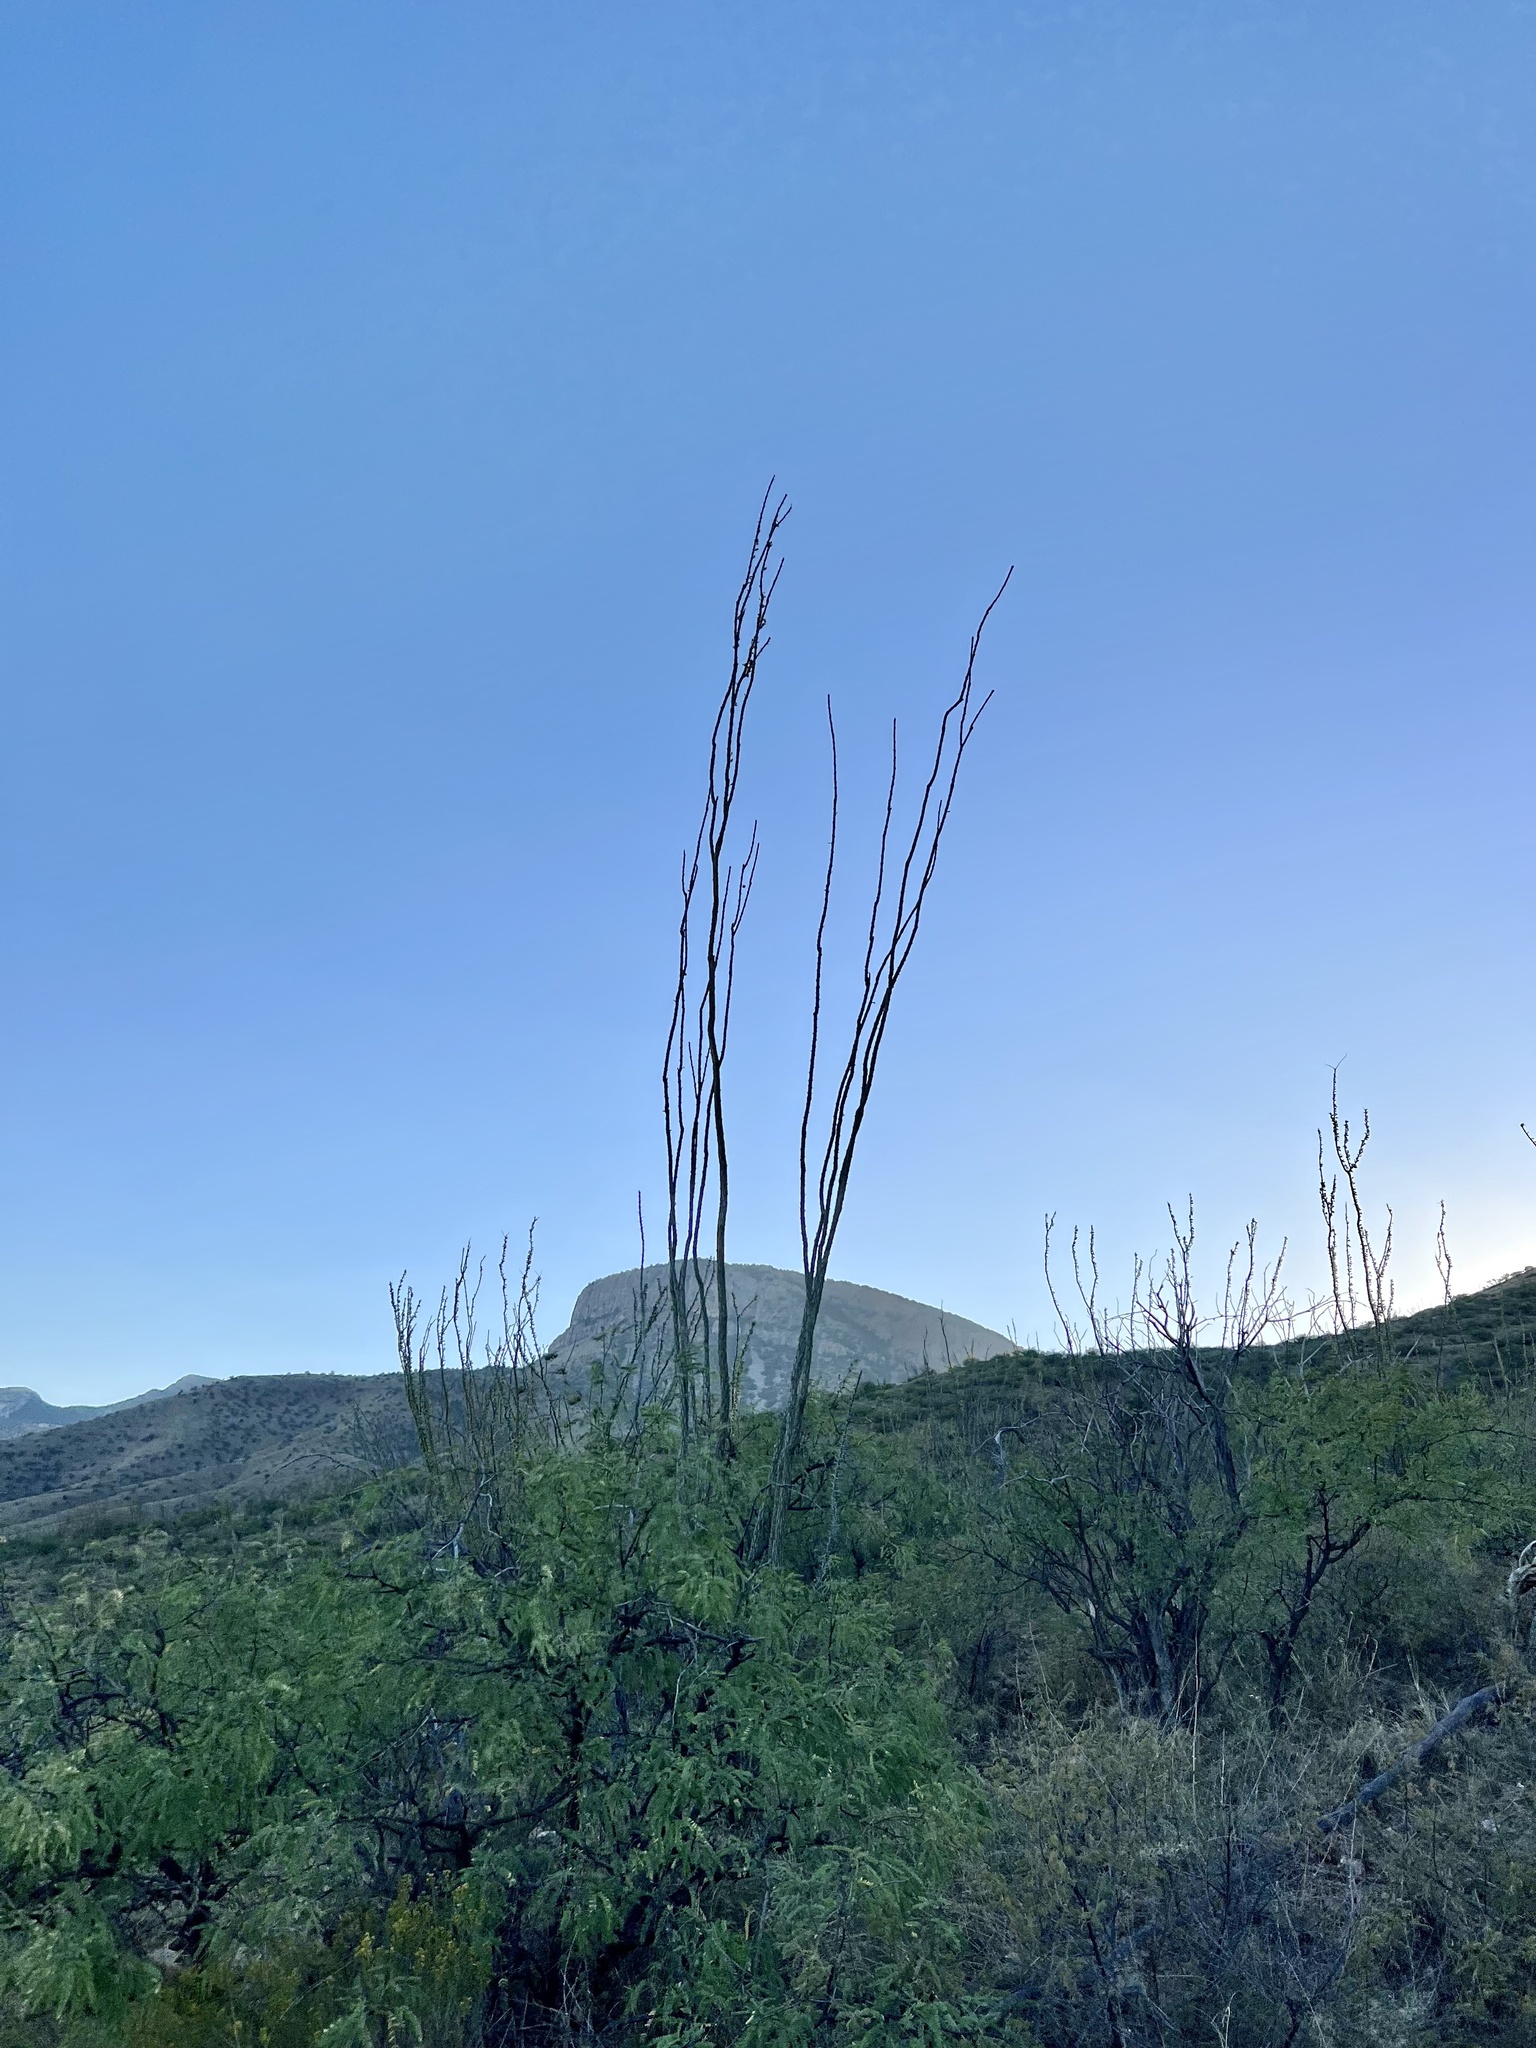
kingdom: Plantae
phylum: Tracheophyta
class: Magnoliopsida
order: Ericales
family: Fouquieriaceae
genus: Fouquieria
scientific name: Fouquieria splendens
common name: Vine-cactus
